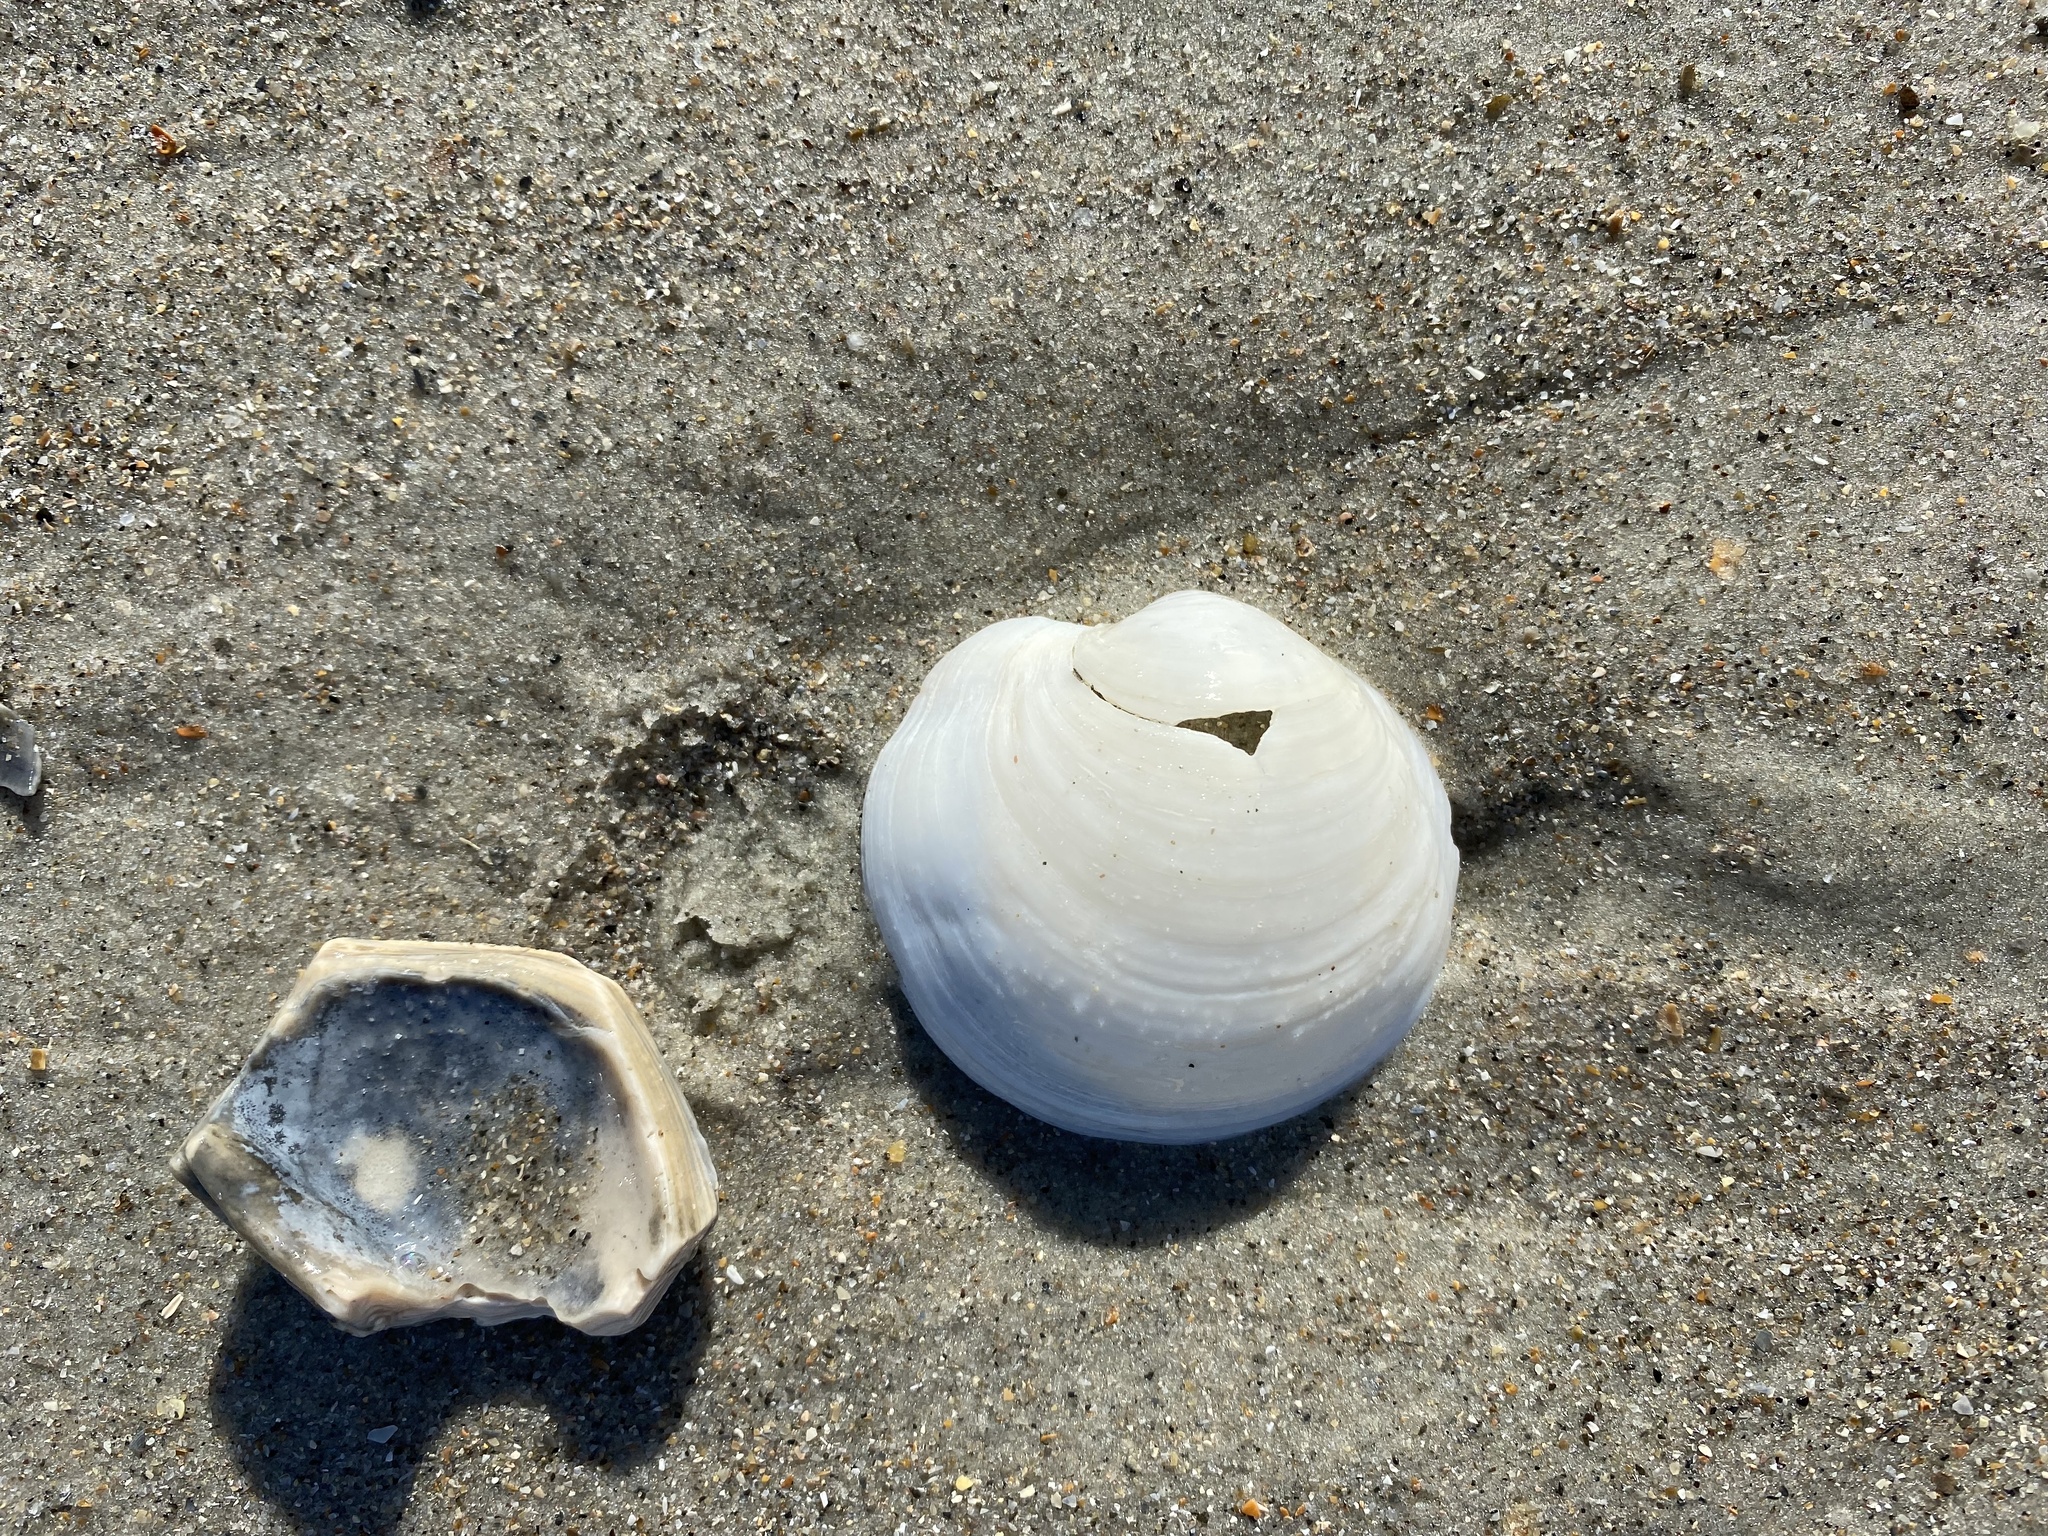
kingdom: Animalia
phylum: Mollusca
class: Bivalvia
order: Lucinida
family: Lucinidae
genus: Anodontia
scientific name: Anodontia alba
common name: Buttercup lucine
